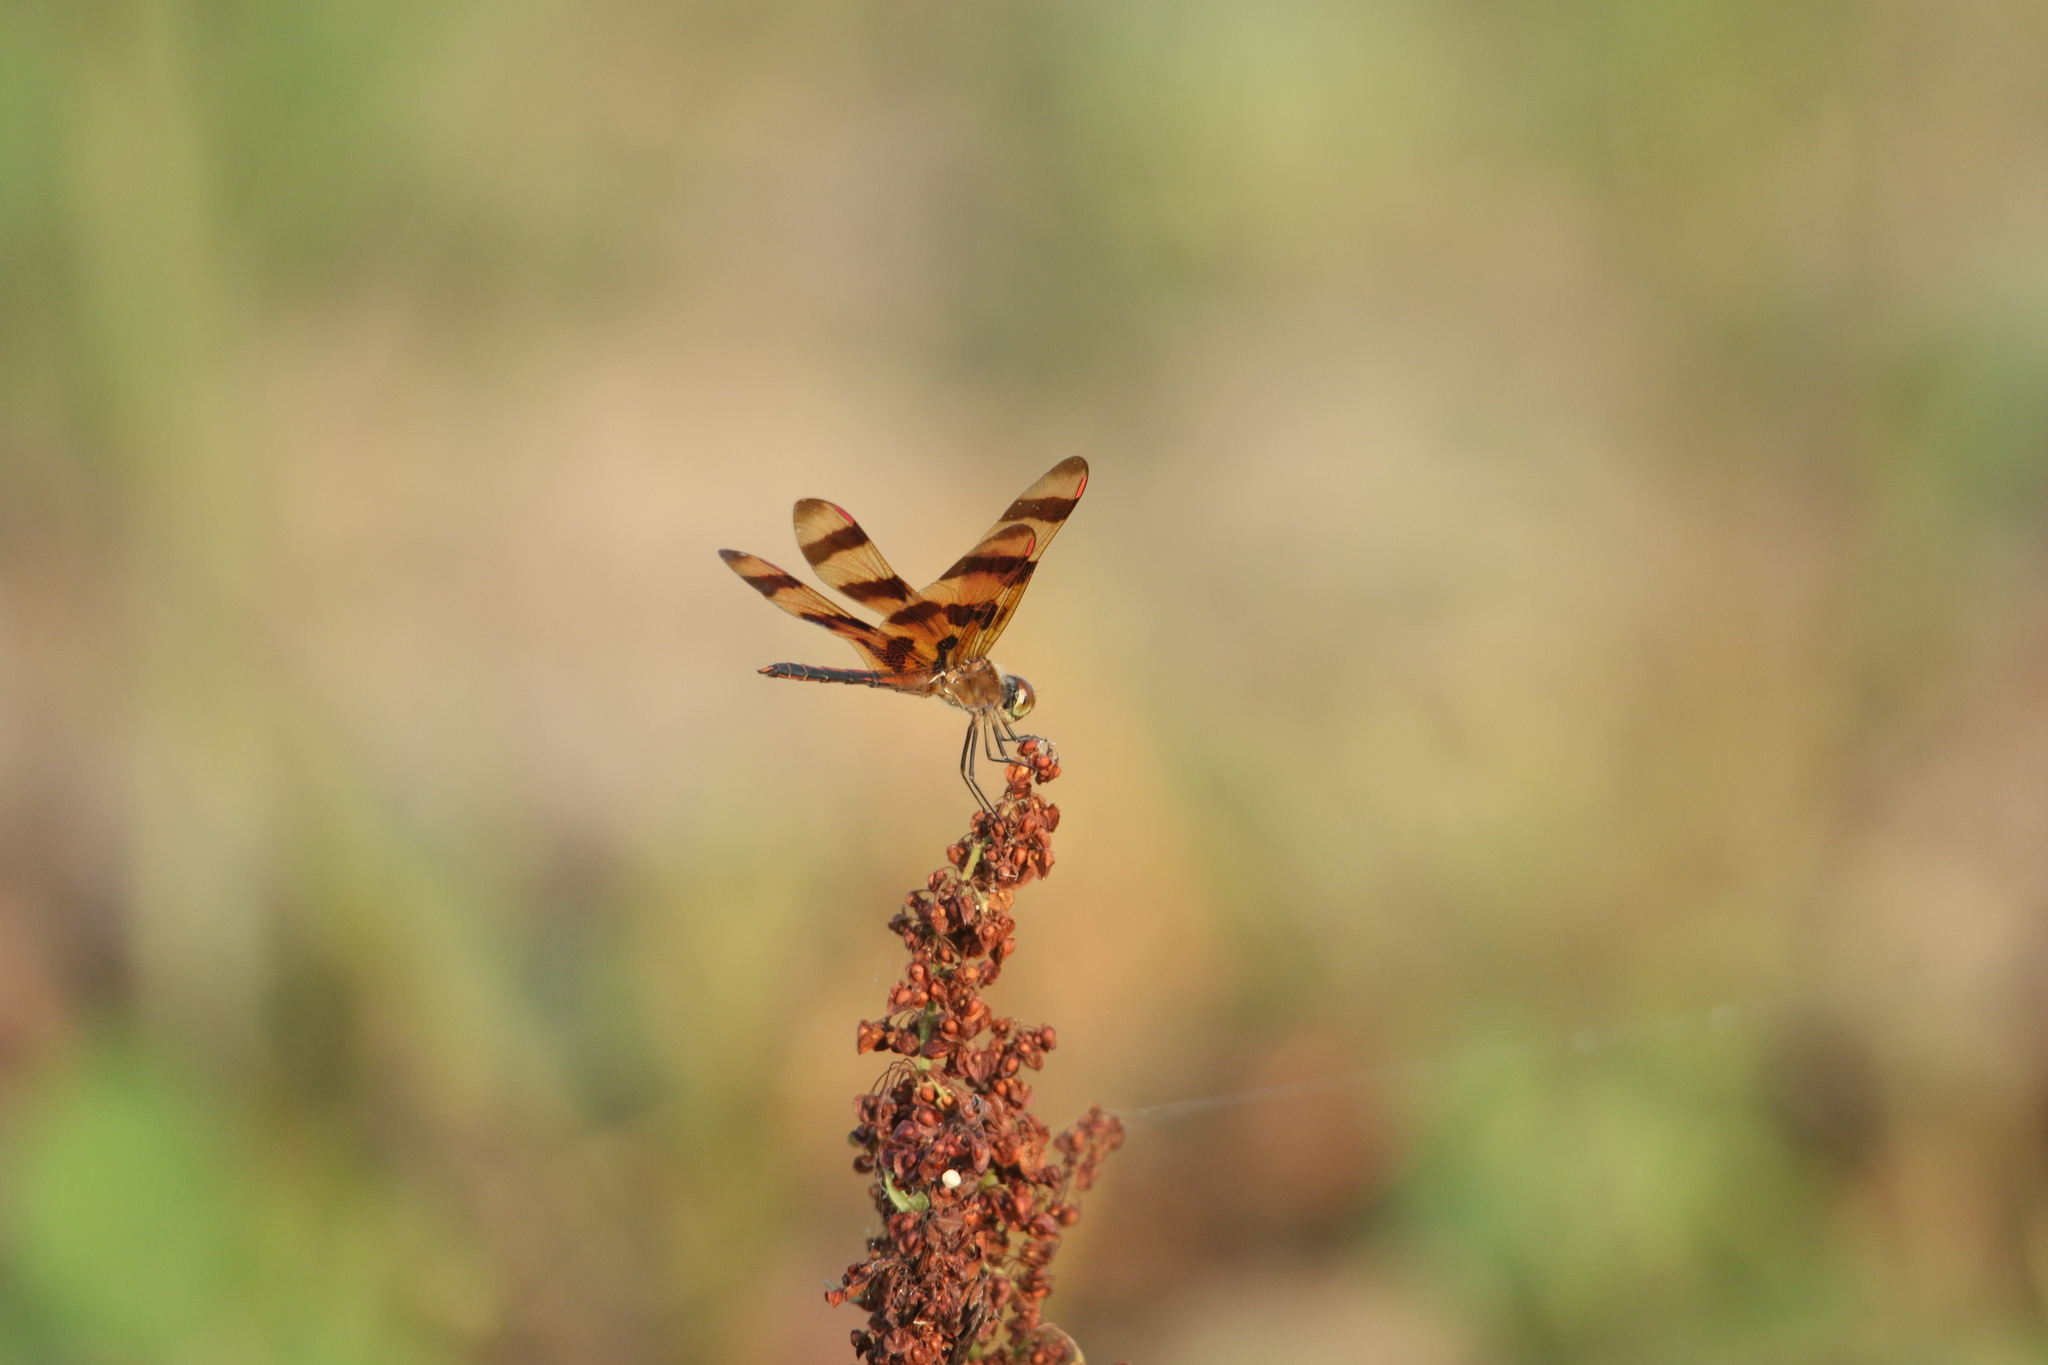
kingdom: Animalia
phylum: Arthropoda
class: Insecta
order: Odonata
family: Libellulidae
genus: Celithemis
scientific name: Celithemis eponina
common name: Halloween pennant
